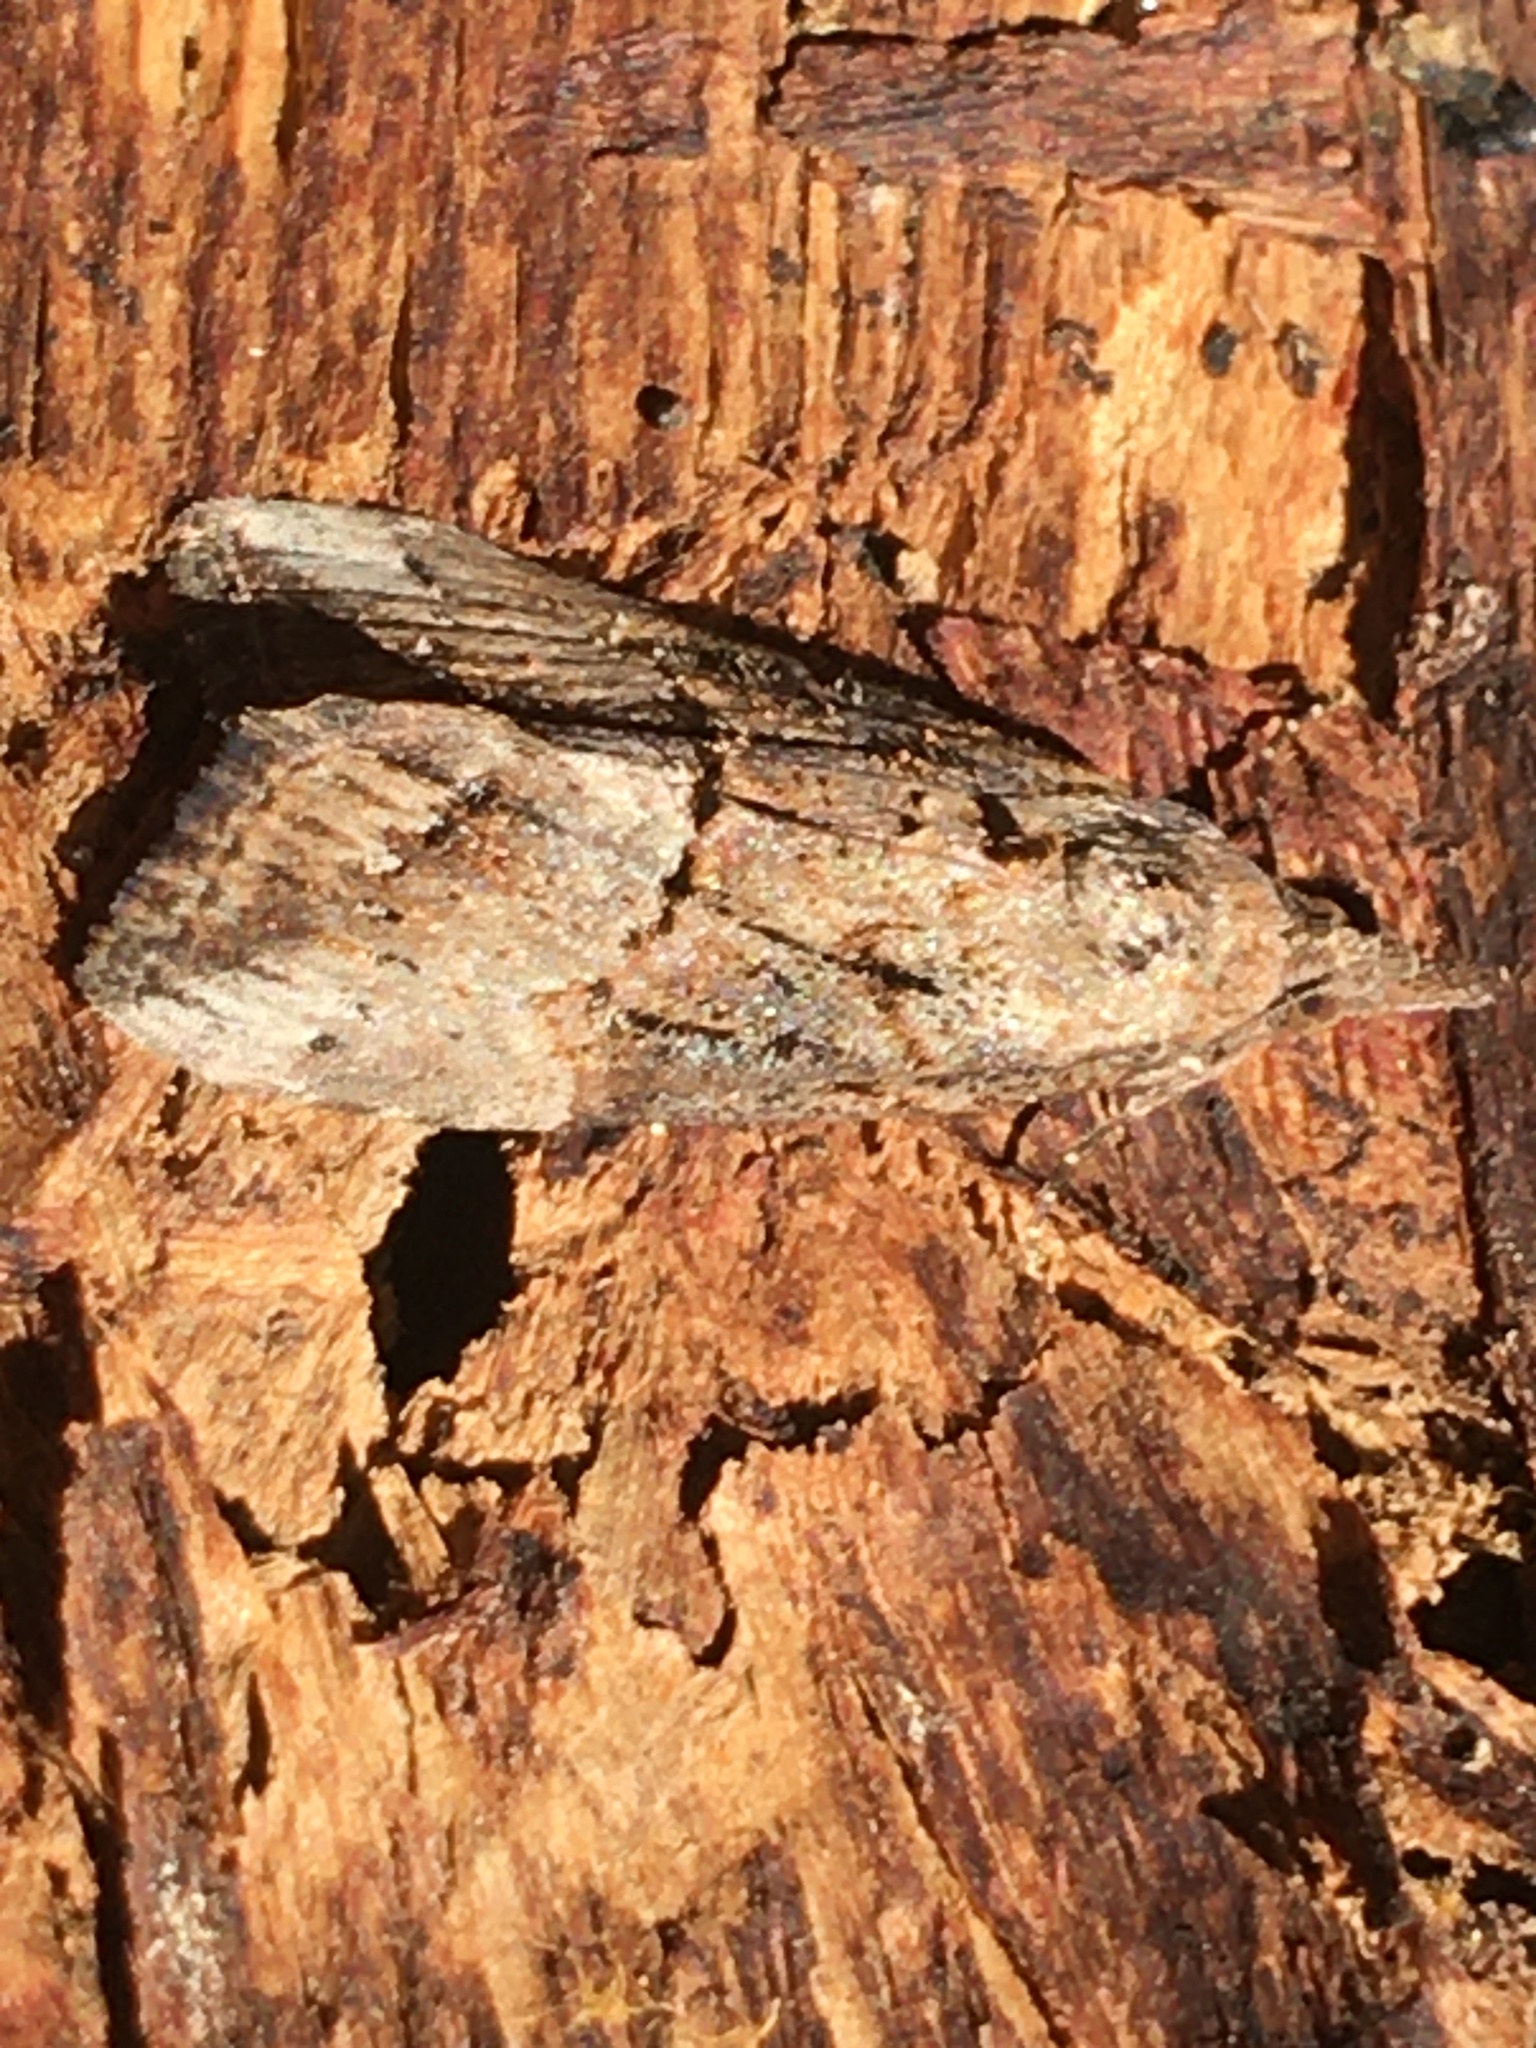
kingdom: Animalia
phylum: Arthropoda
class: Insecta
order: Lepidoptera
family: Erebidae
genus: Hypena
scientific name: Hypena scabra
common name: Green cloverworm
